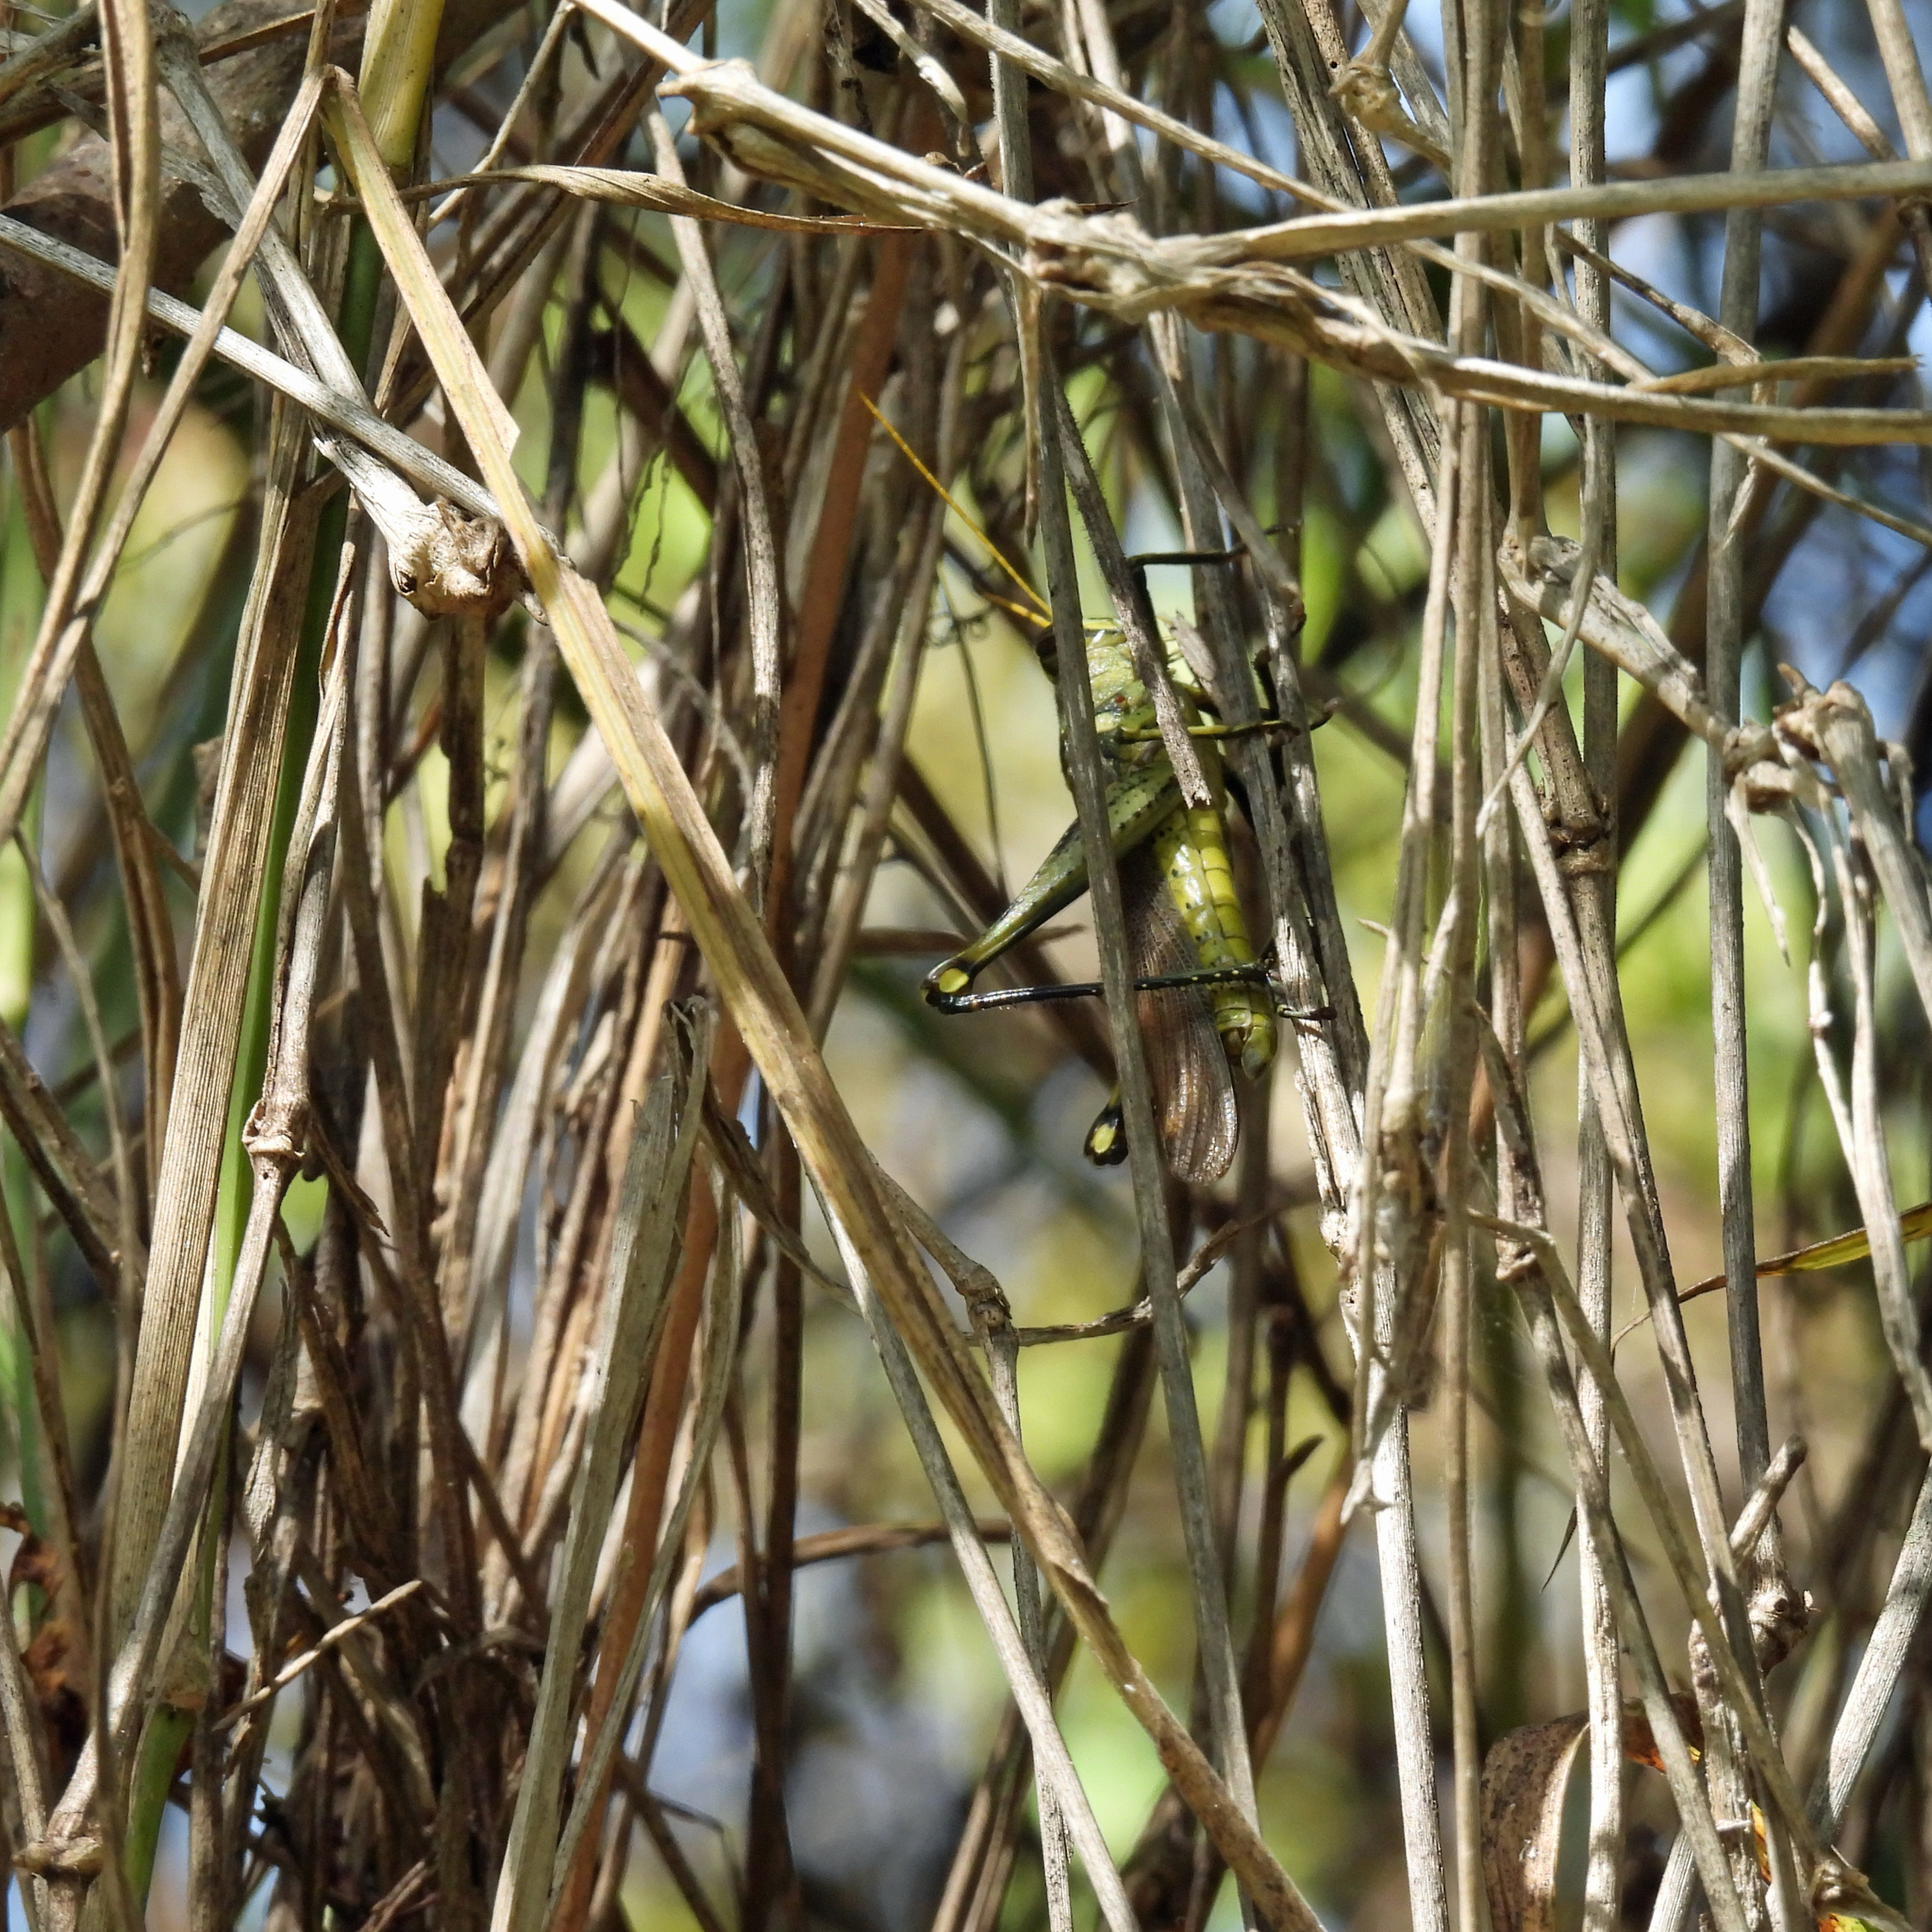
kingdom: Animalia
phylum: Arthropoda
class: Insecta
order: Orthoptera
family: Acrididae
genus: Schistocerca
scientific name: Schistocerca obscura
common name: Obscure bird grasshopper
